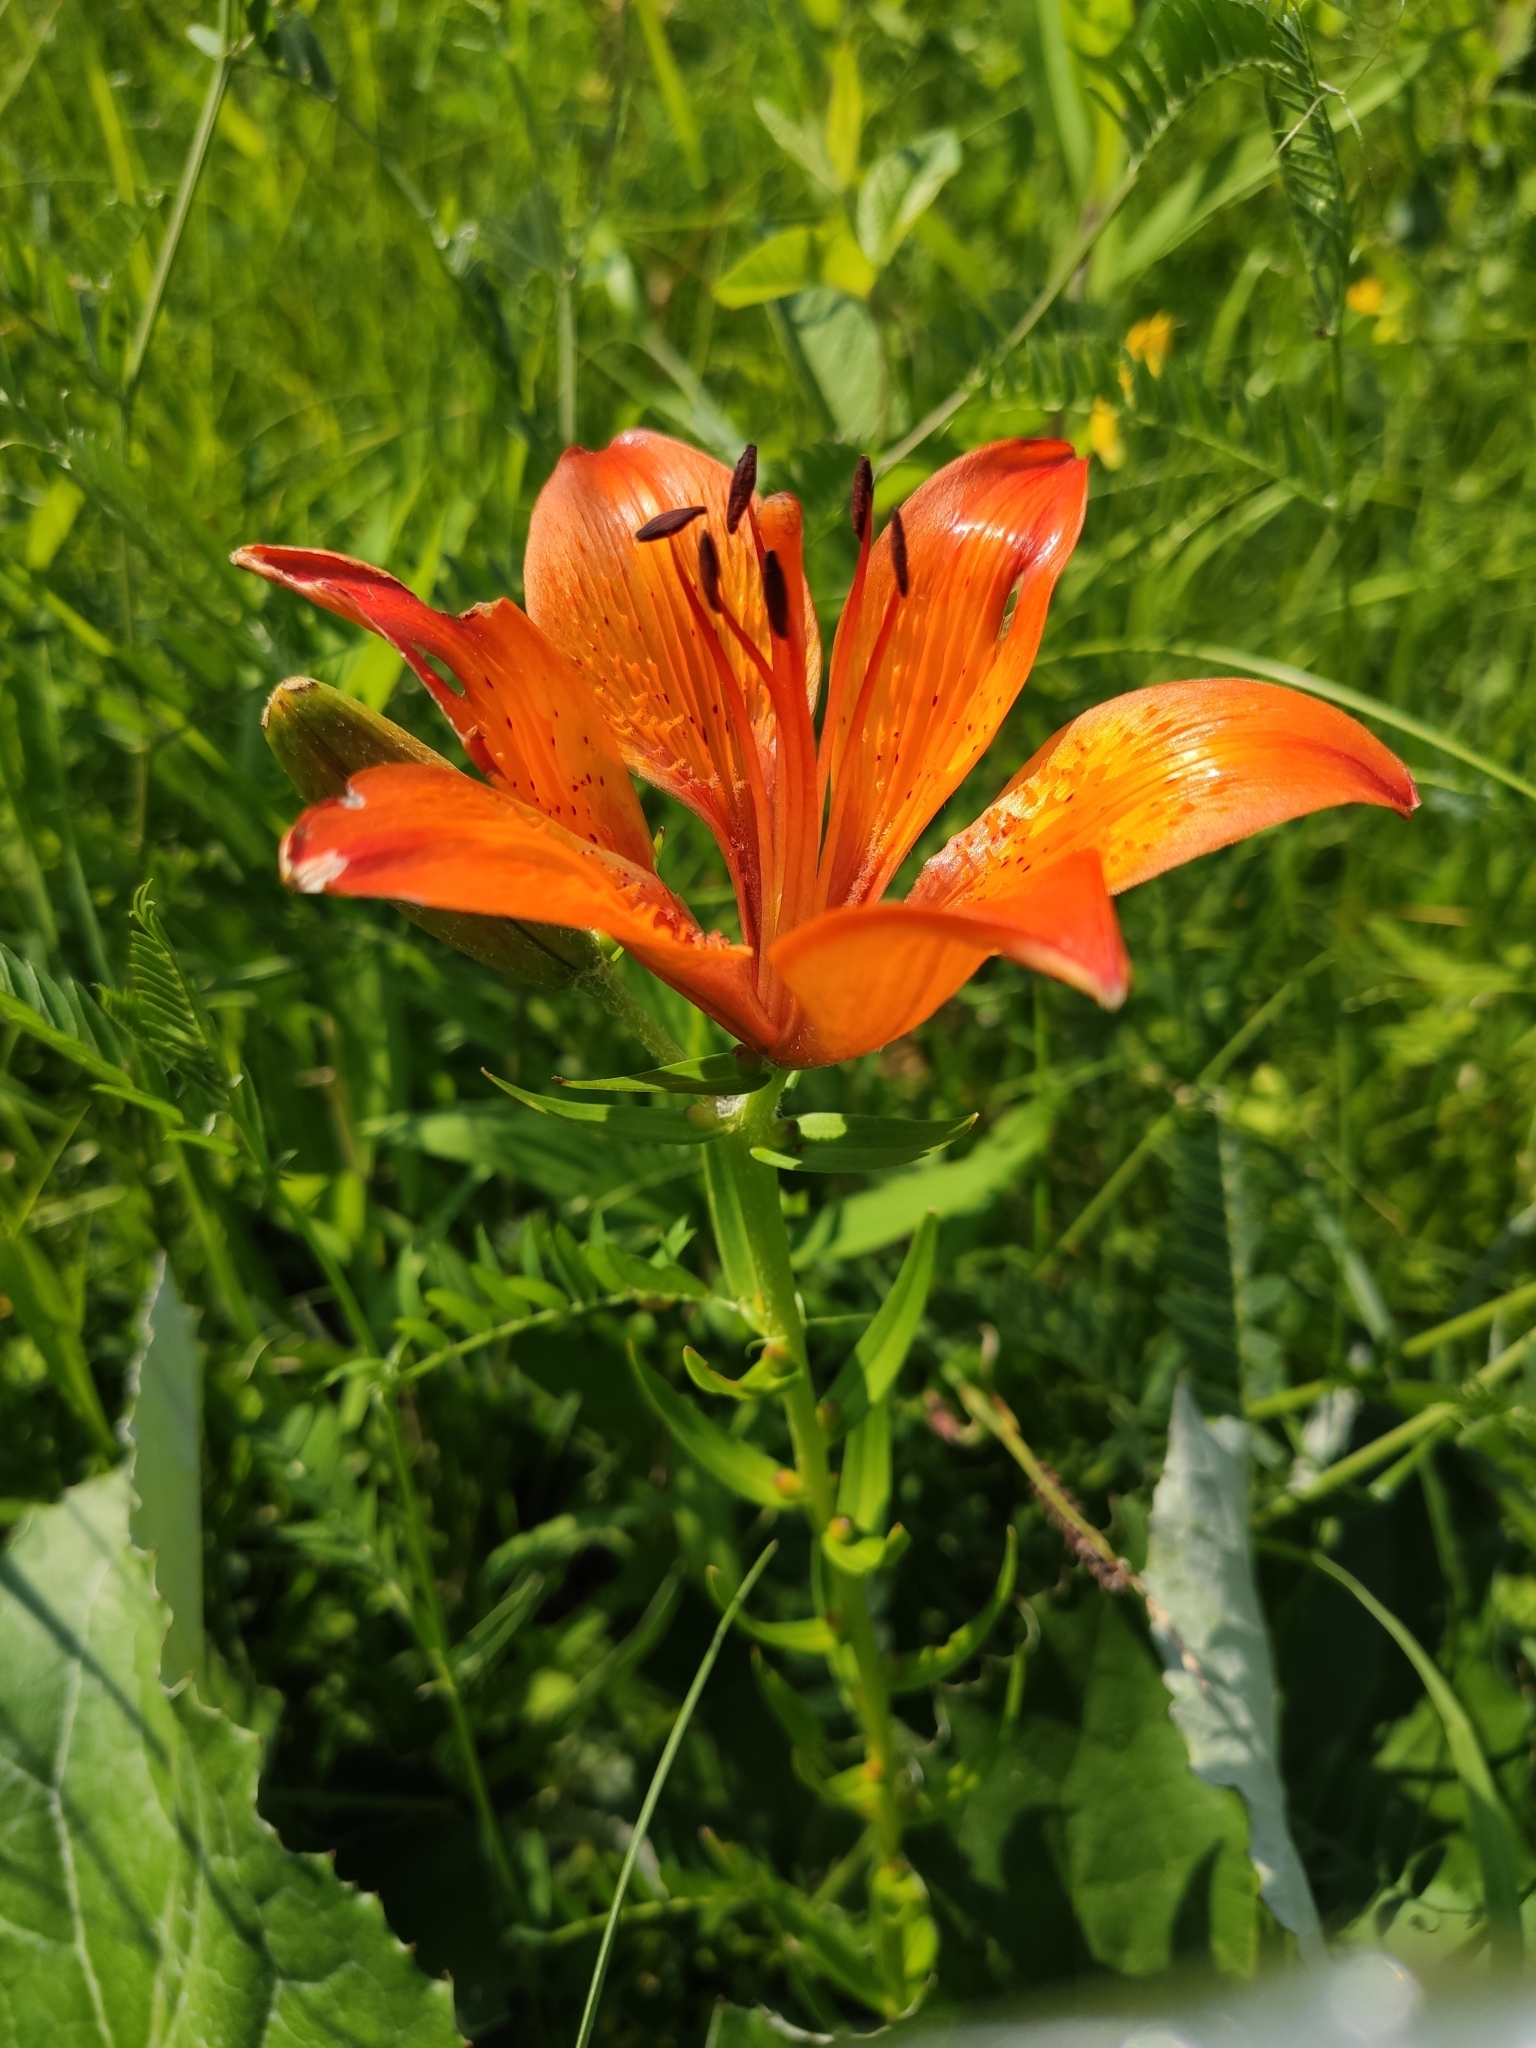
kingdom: Plantae
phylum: Tracheophyta
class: Liliopsida
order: Liliales
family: Liliaceae
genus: Lilium
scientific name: Lilium bulbiferum
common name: Orange lily
